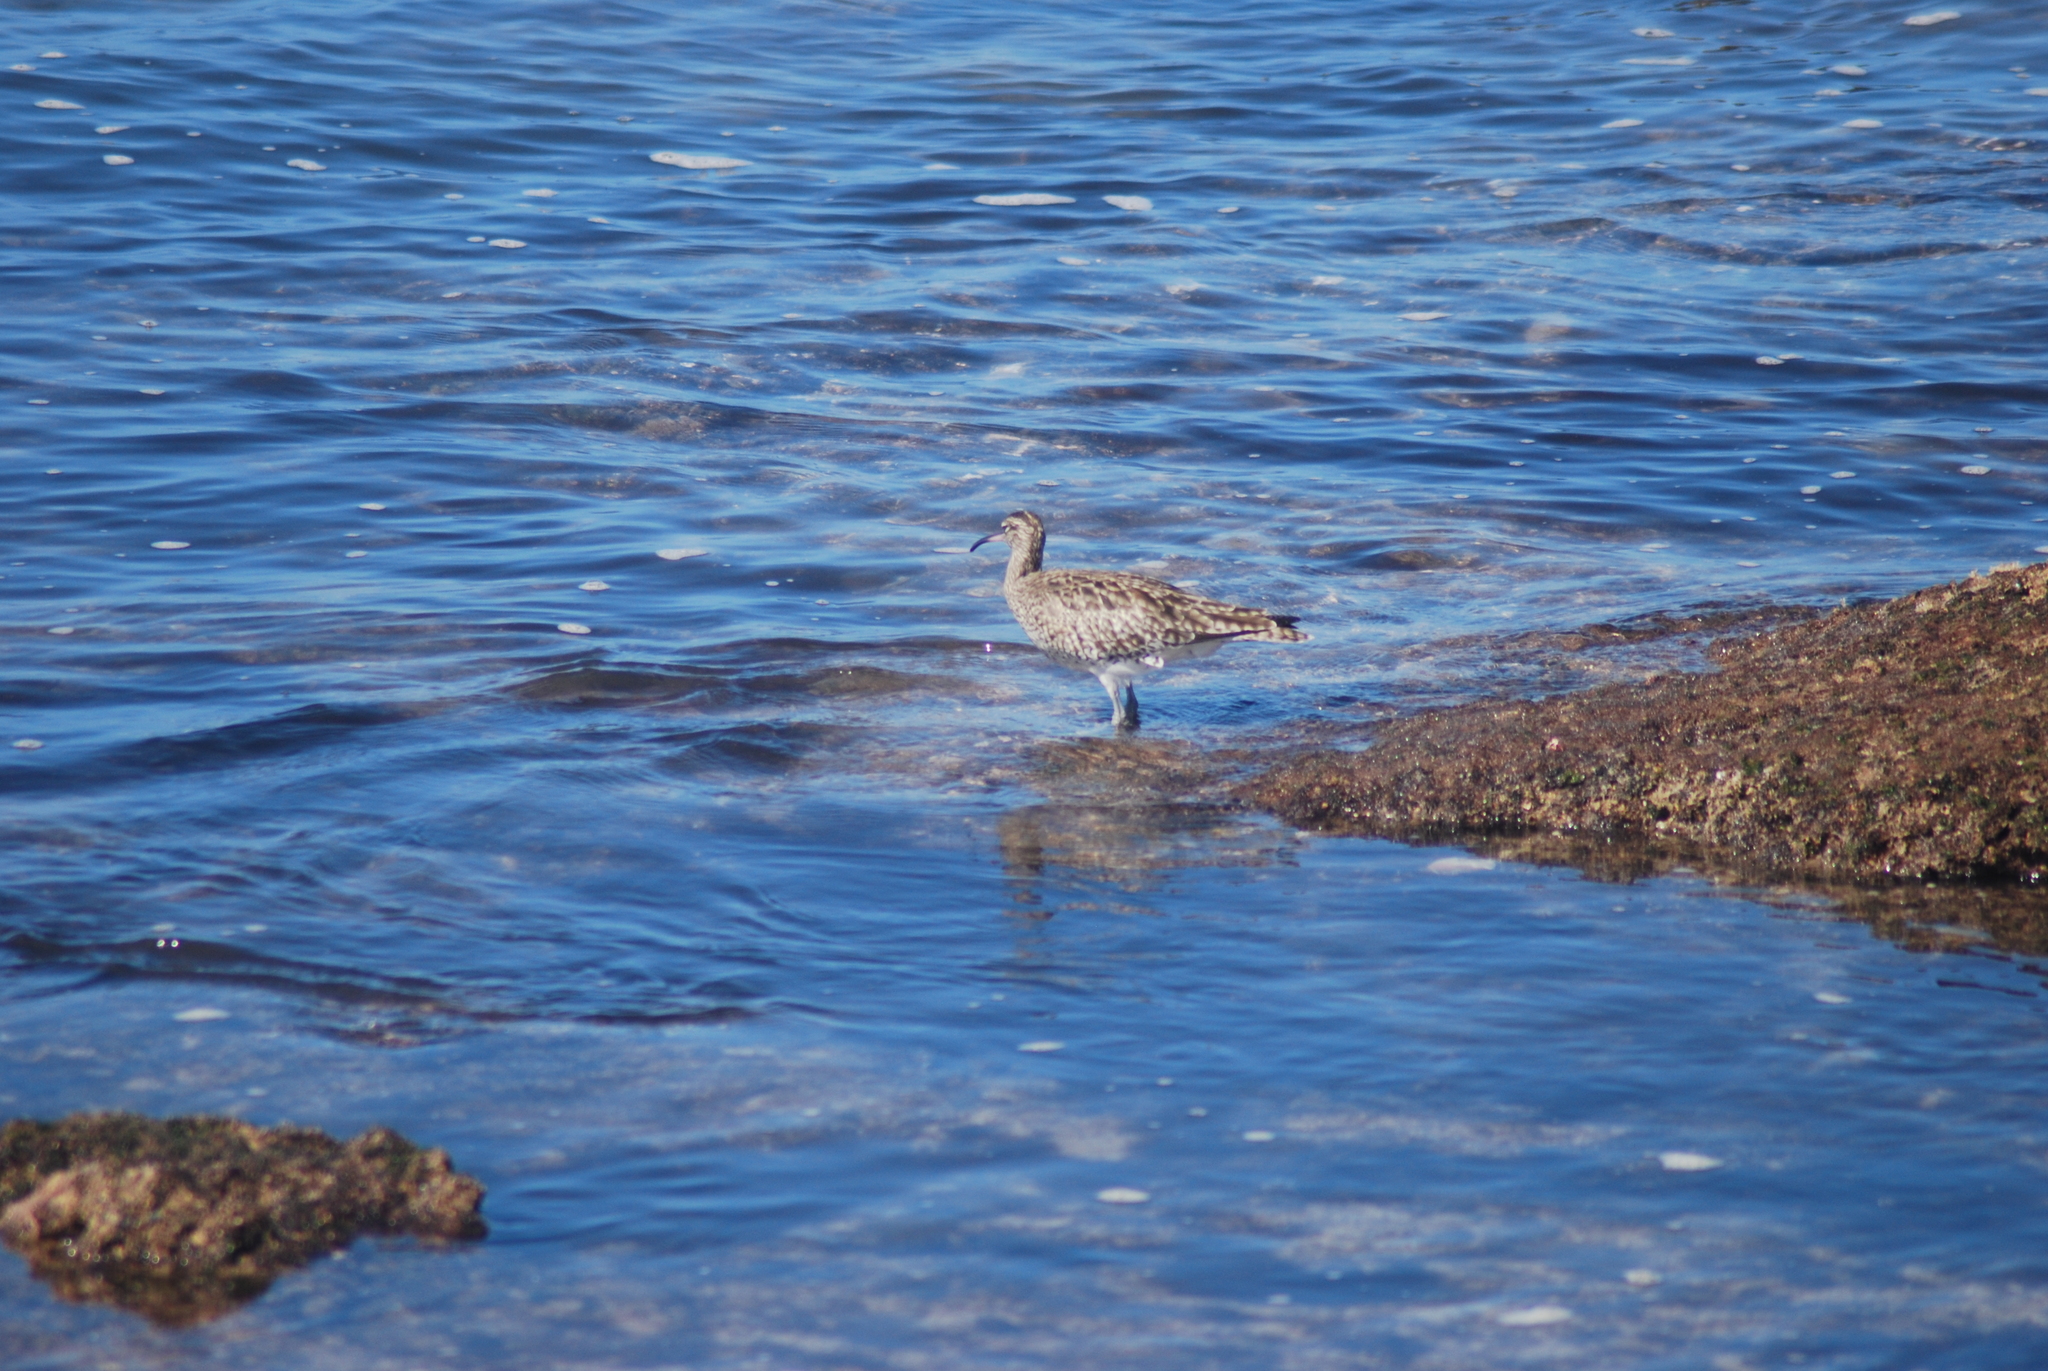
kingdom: Animalia
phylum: Chordata
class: Aves
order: Charadriiformes
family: Scolopacidae
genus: Numenius
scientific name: Numenius phaeopus
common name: Whimbrel
